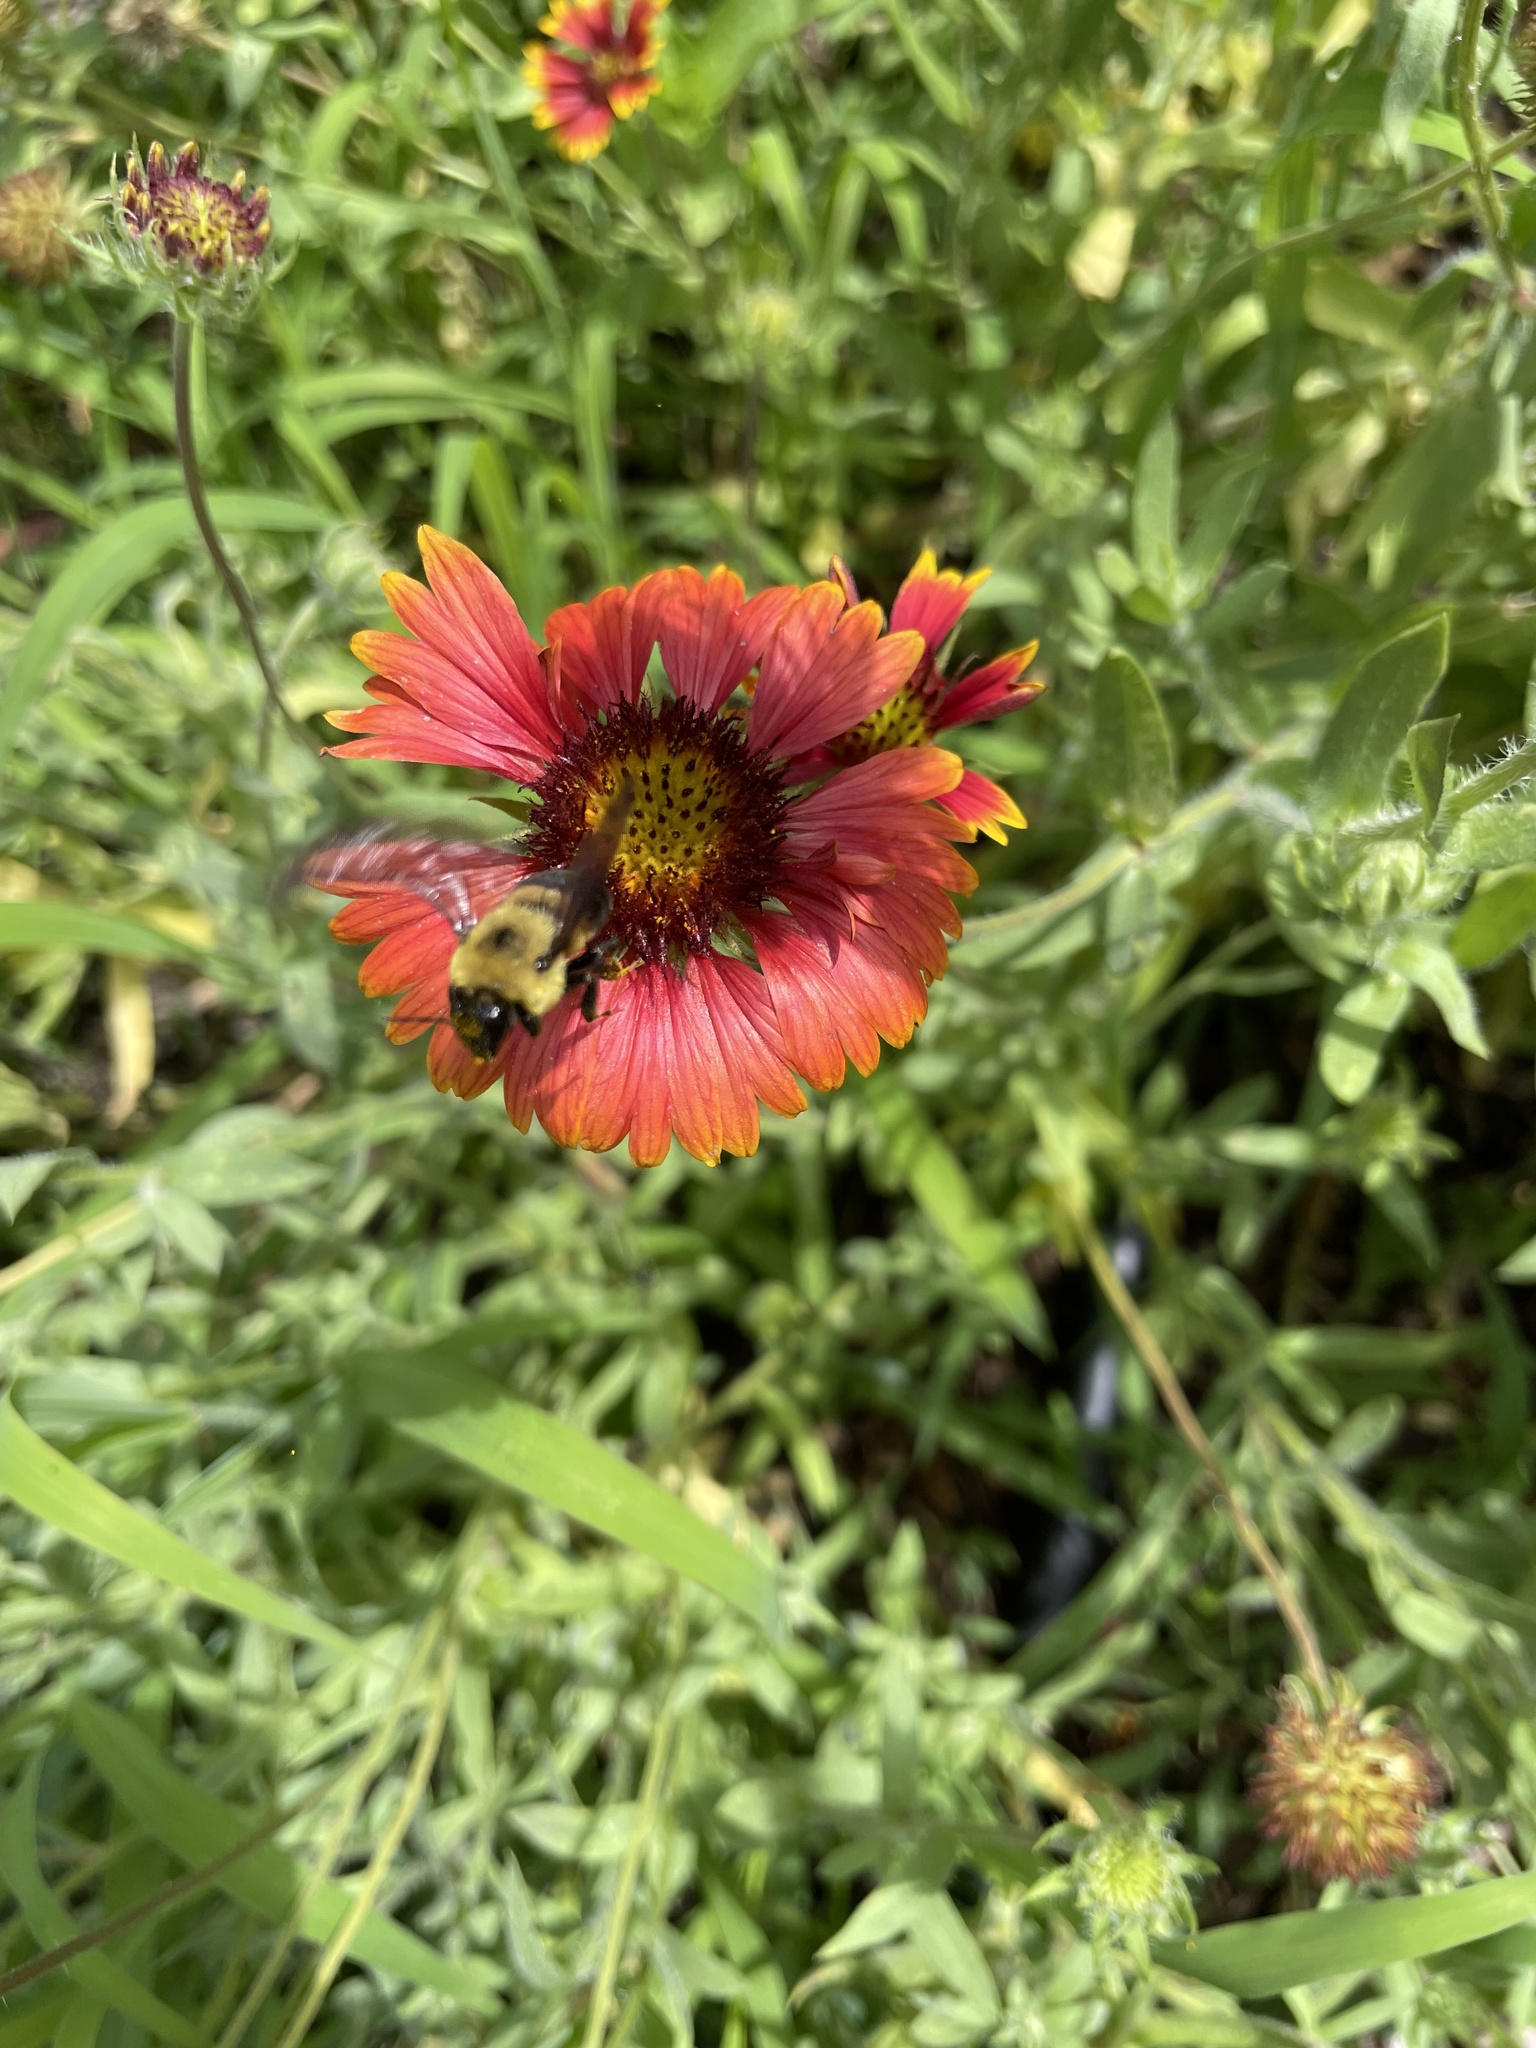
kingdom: Animalia
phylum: Arthropoda
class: Insecta
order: Hymenoptera
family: Apidae
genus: Bombus
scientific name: Bombus griseocollis
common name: Brown-belted bumble bee
